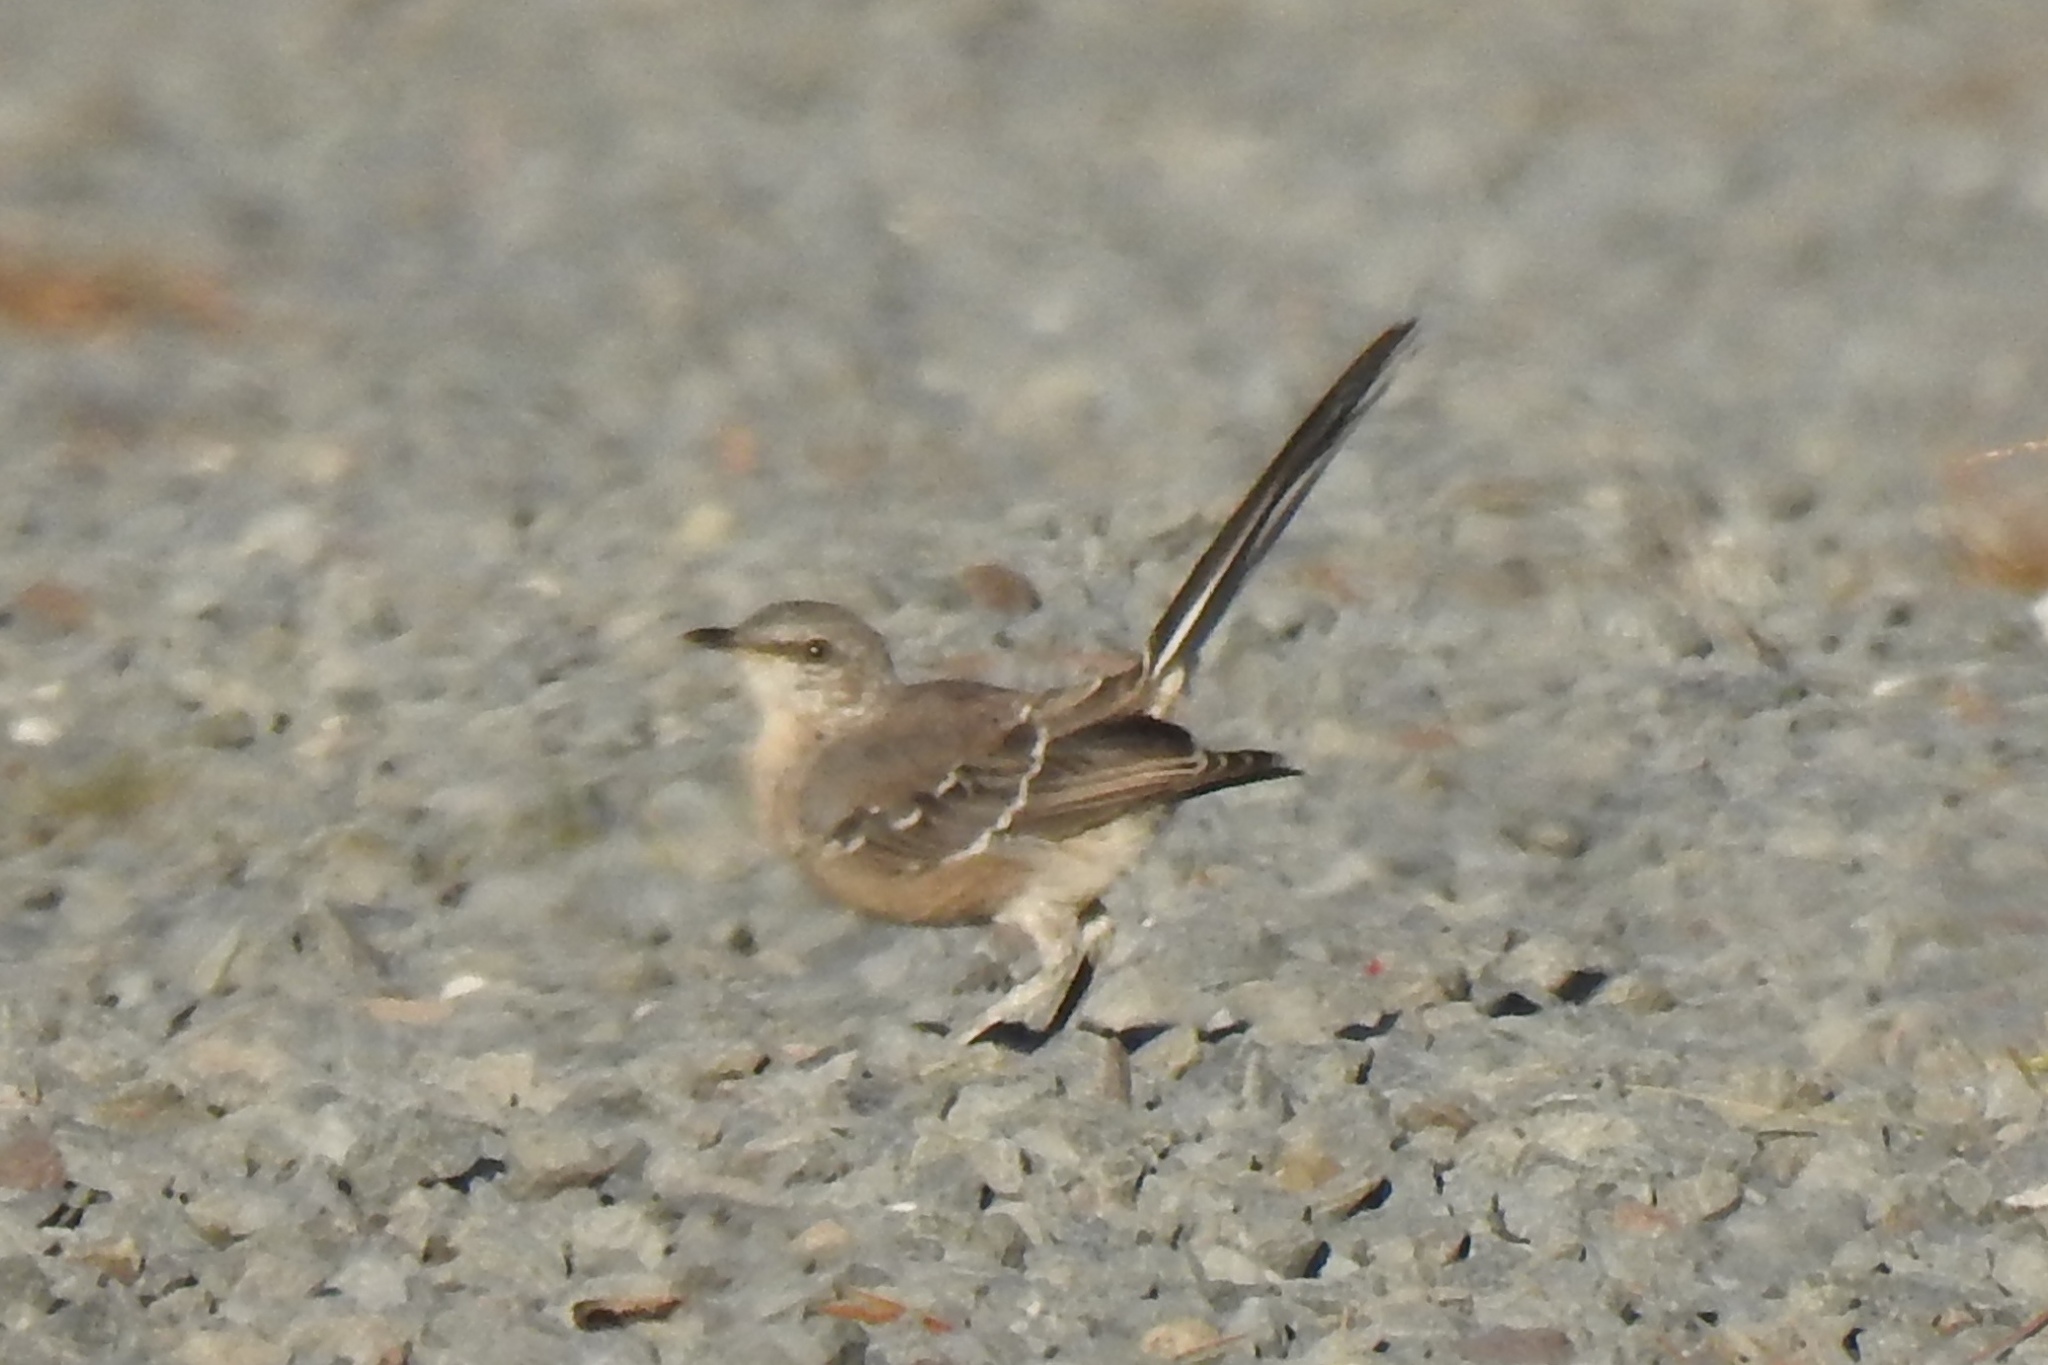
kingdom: Animalia
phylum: Chordata
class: Aves
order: Passeriformes
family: Mimidae
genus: Mimus
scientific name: Mimus polyglottos
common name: Northern mockingbird
